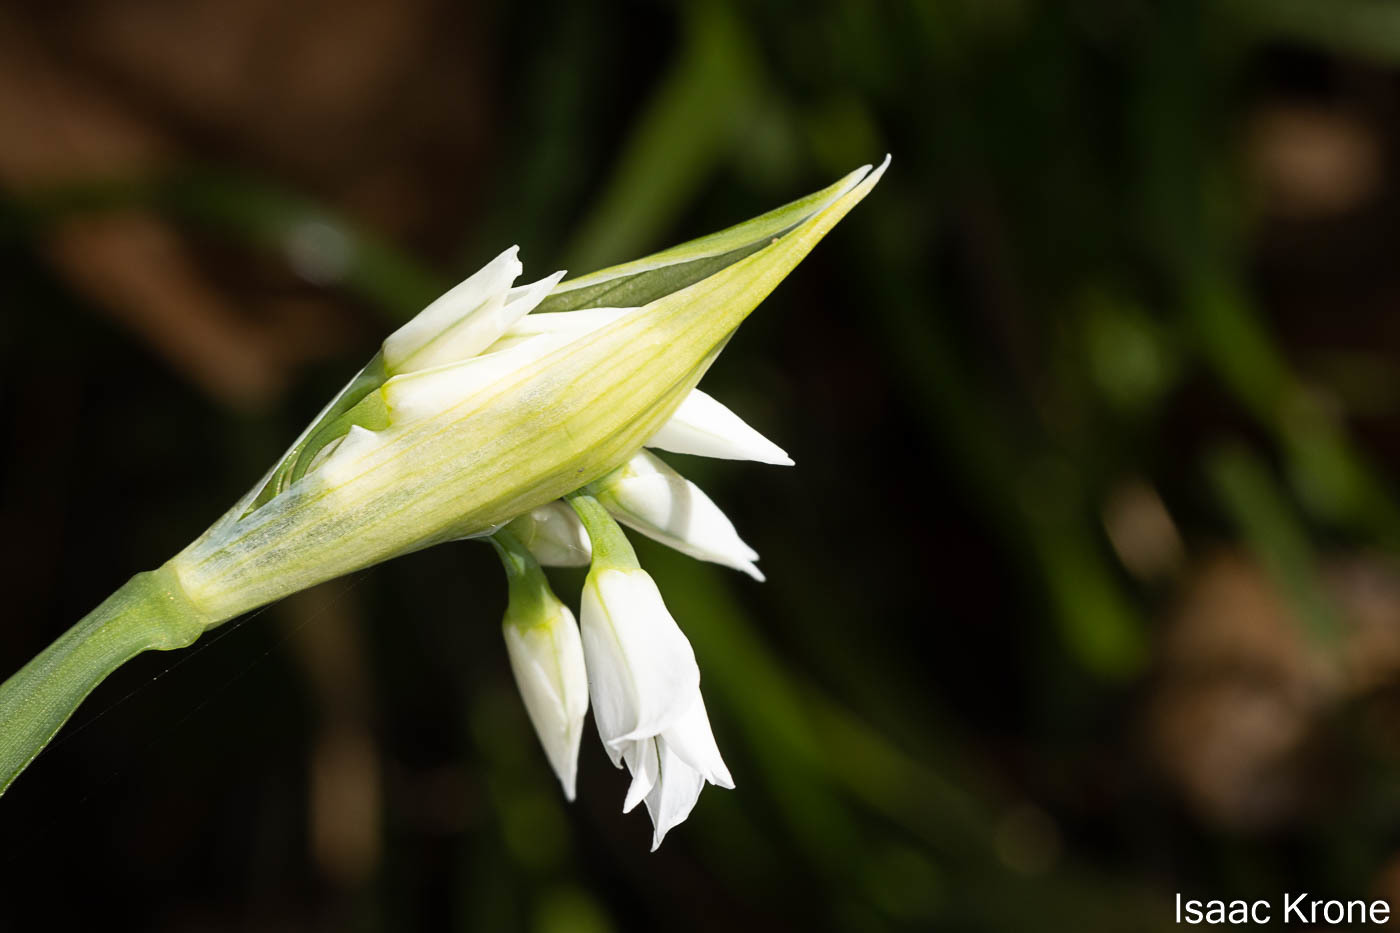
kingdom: Plantae
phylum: Tracheophyta
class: Liliopsida
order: Asparagales
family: Amaryllidaceae
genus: Allium
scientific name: Allium triquetrum
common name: Three-cornered garlic
